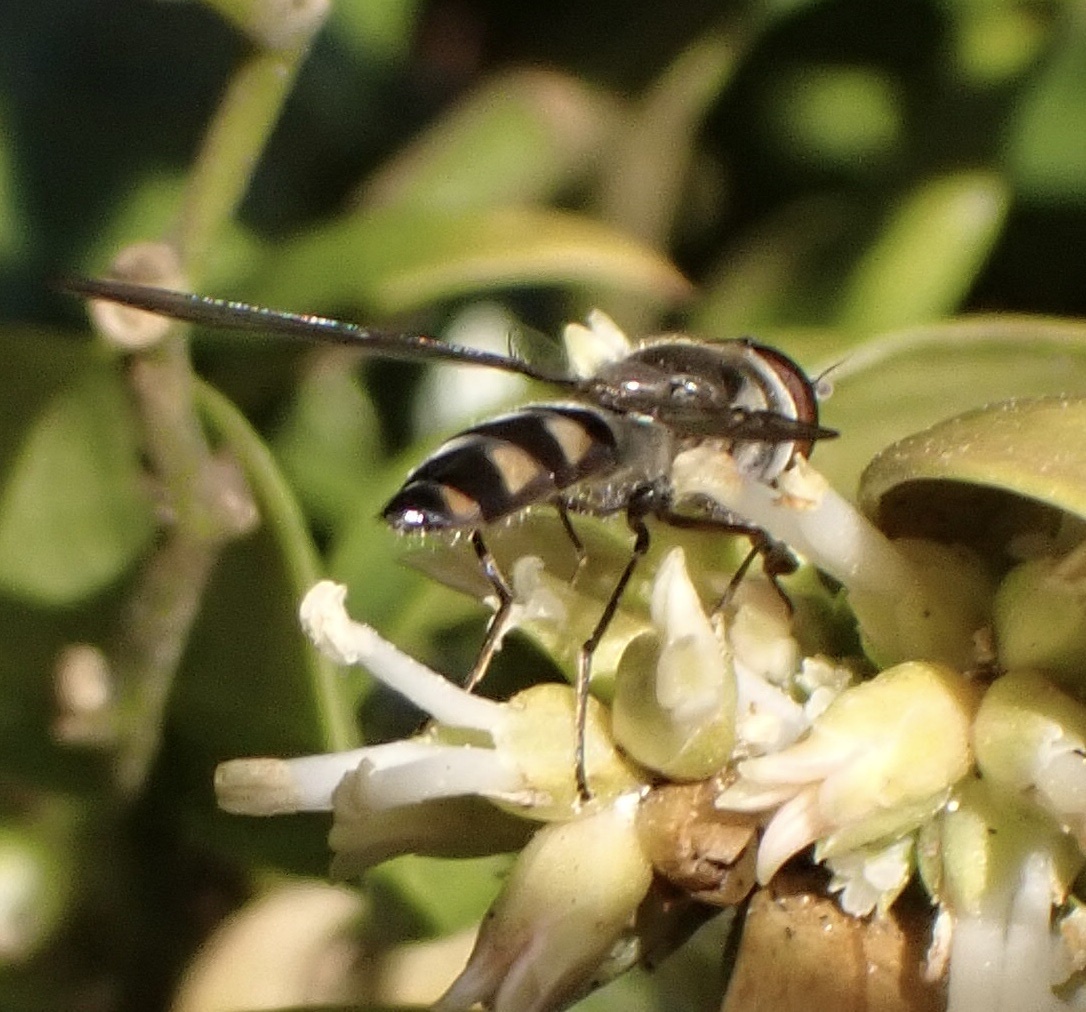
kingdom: Animalia
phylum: Arthropoda
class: Insecta
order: Diptera
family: Syrphidae
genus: Meliscaeva
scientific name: Meliscaeva auricollis
